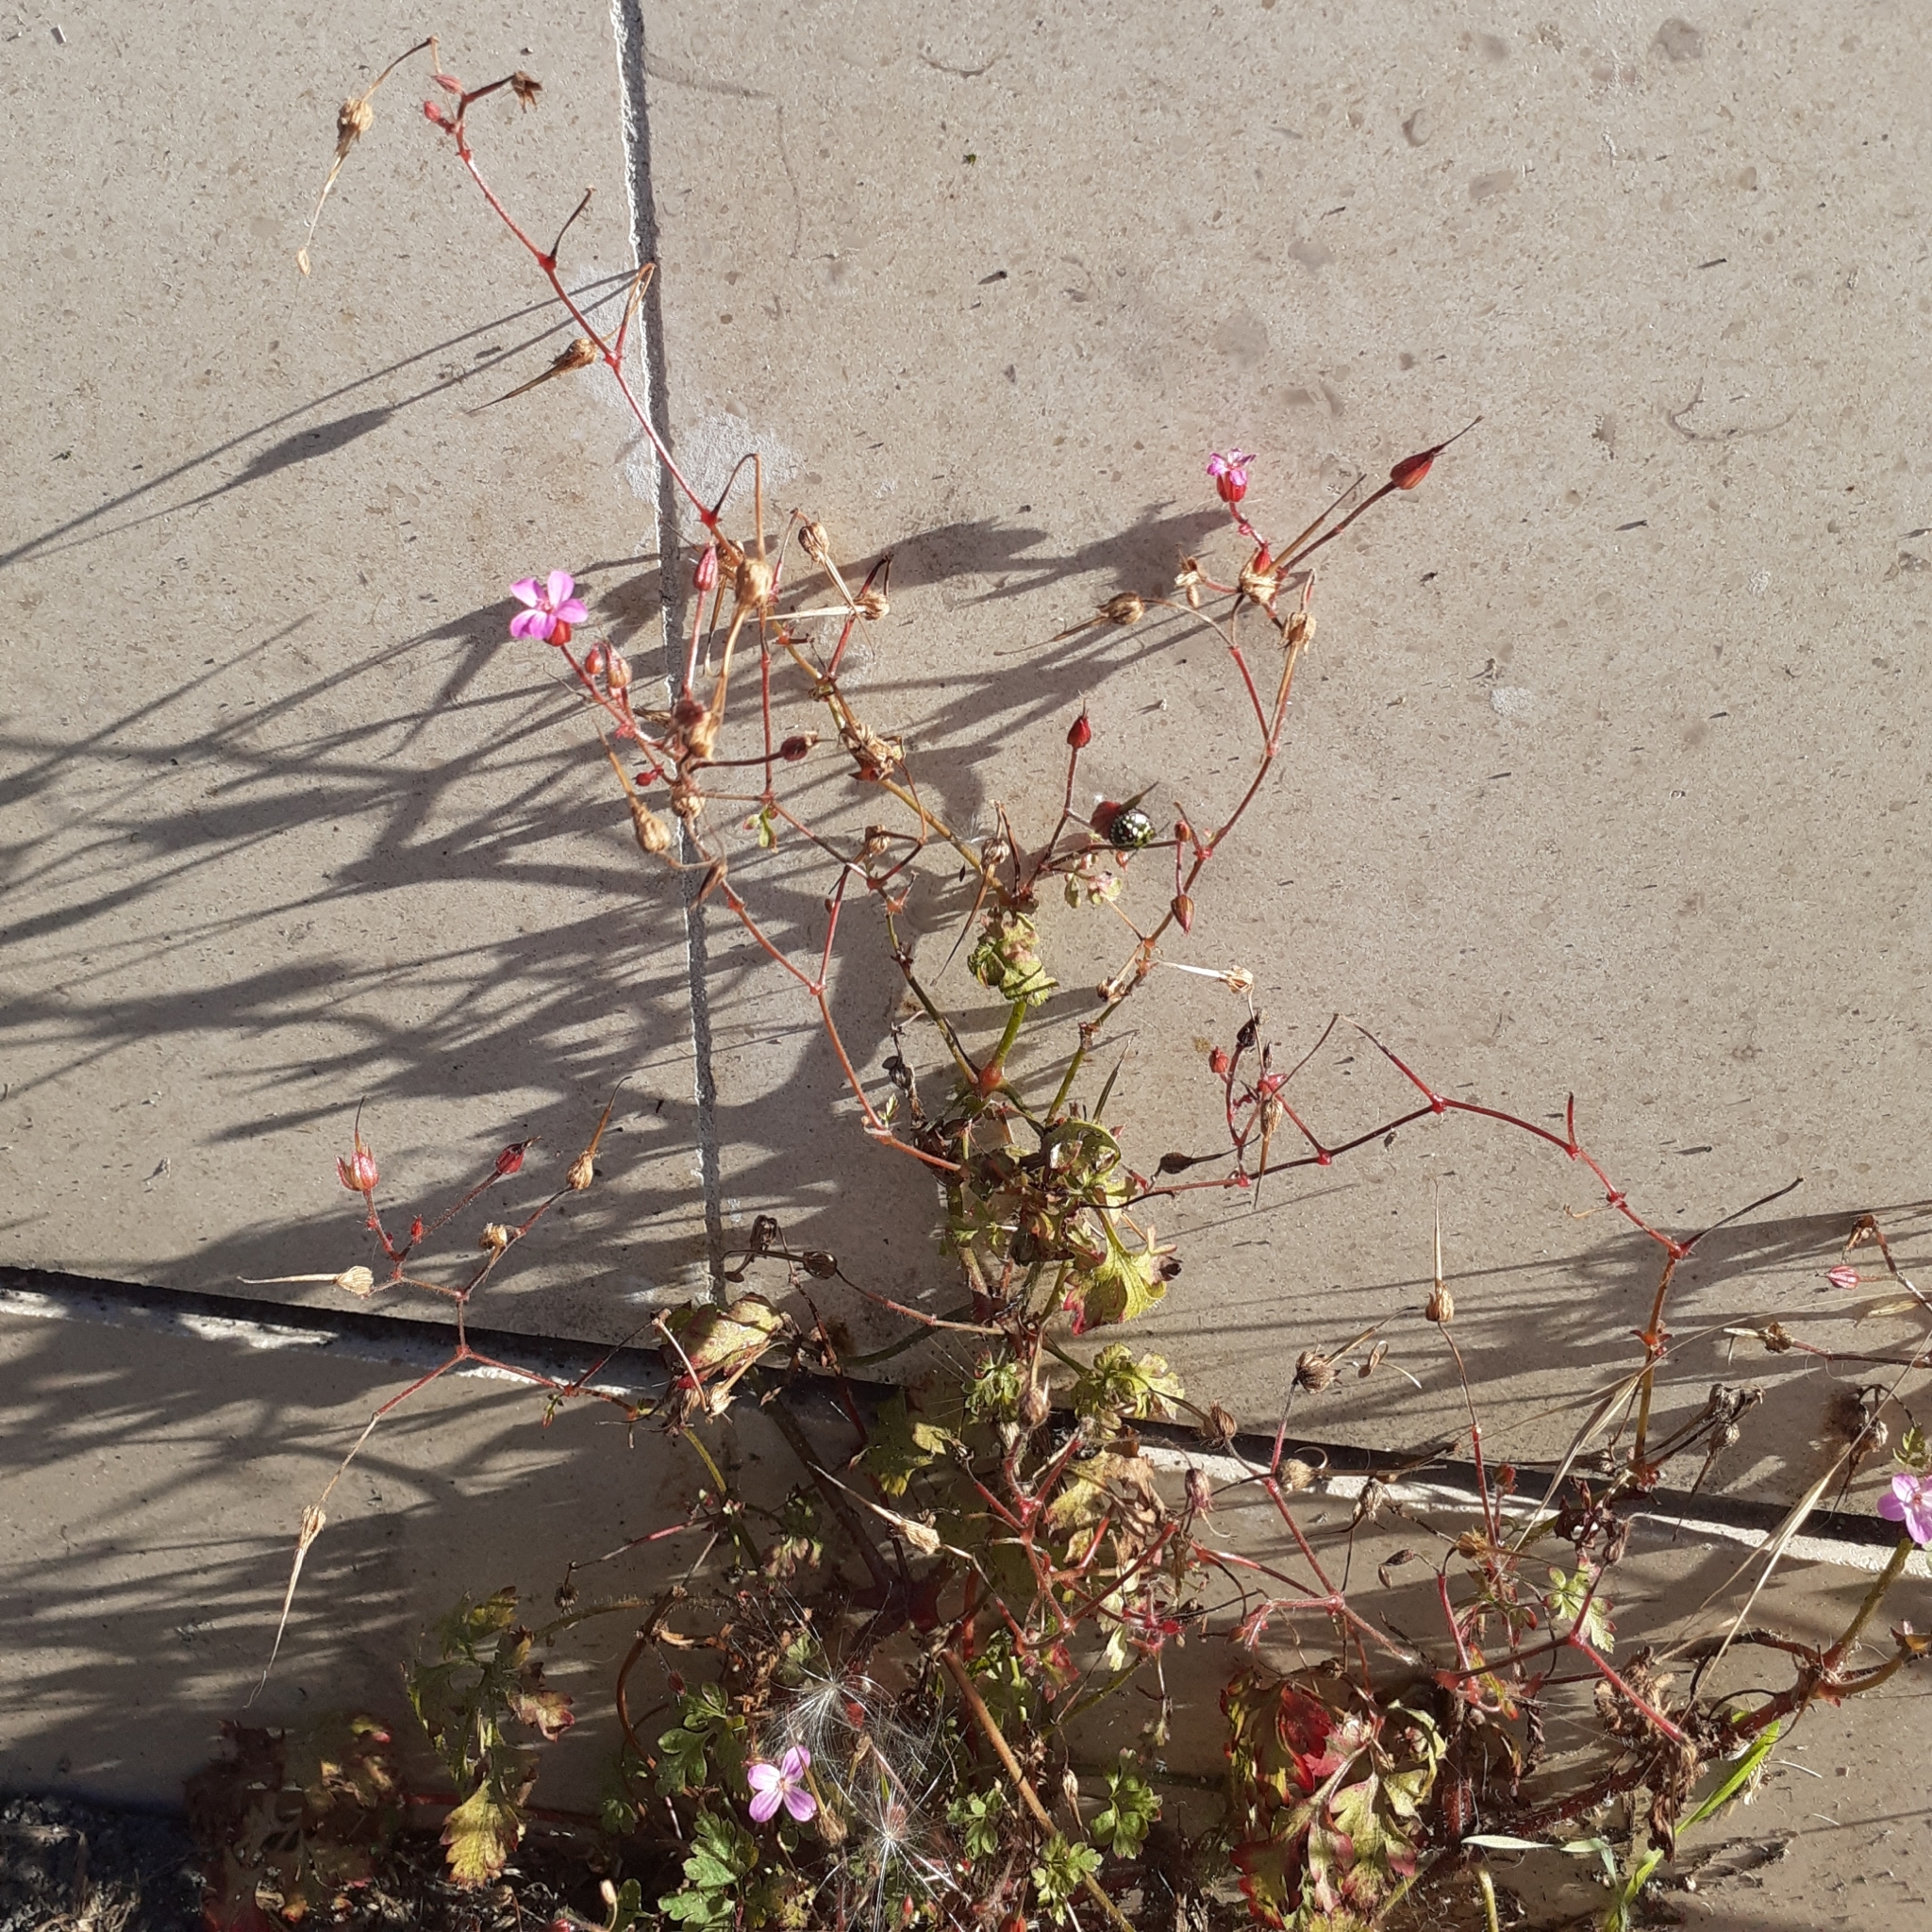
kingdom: Plantae
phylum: Tracheophyta
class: Magnoliopsida
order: Geraniales
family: Geraniaceae
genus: Geranium
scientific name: Geranium robertianum
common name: Herb-robert
